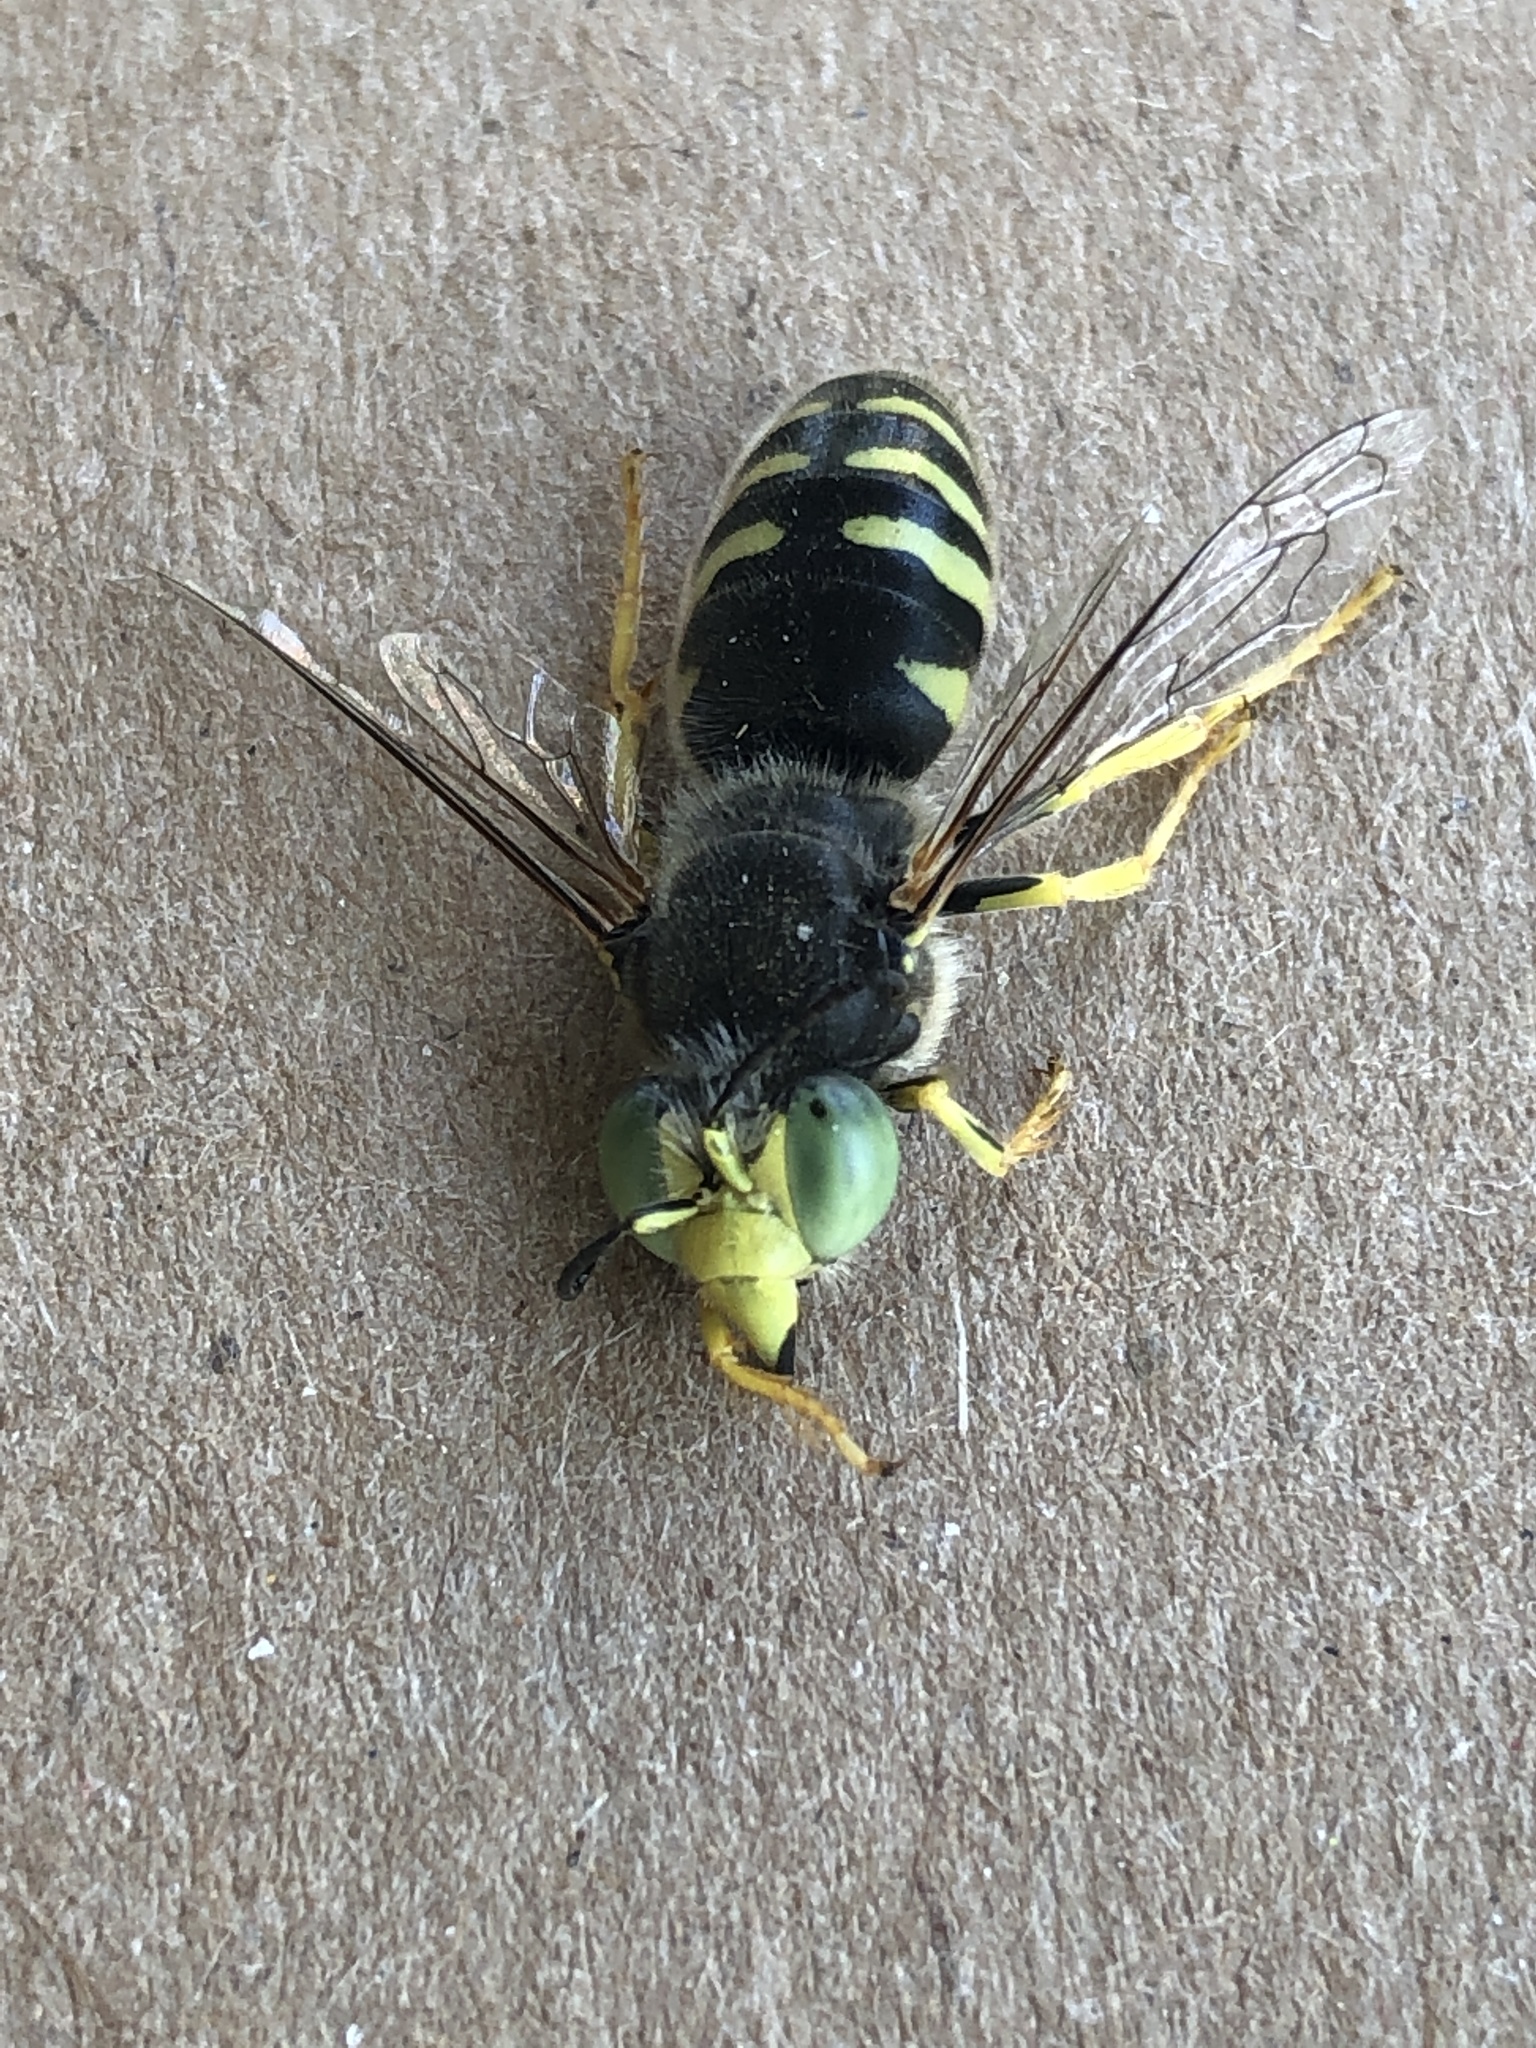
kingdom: Animalia
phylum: Arthropoda
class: Insecta
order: Hymenoptera
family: Crabronidae
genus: Bembix
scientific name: Bembix americana
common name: American sand wasp
